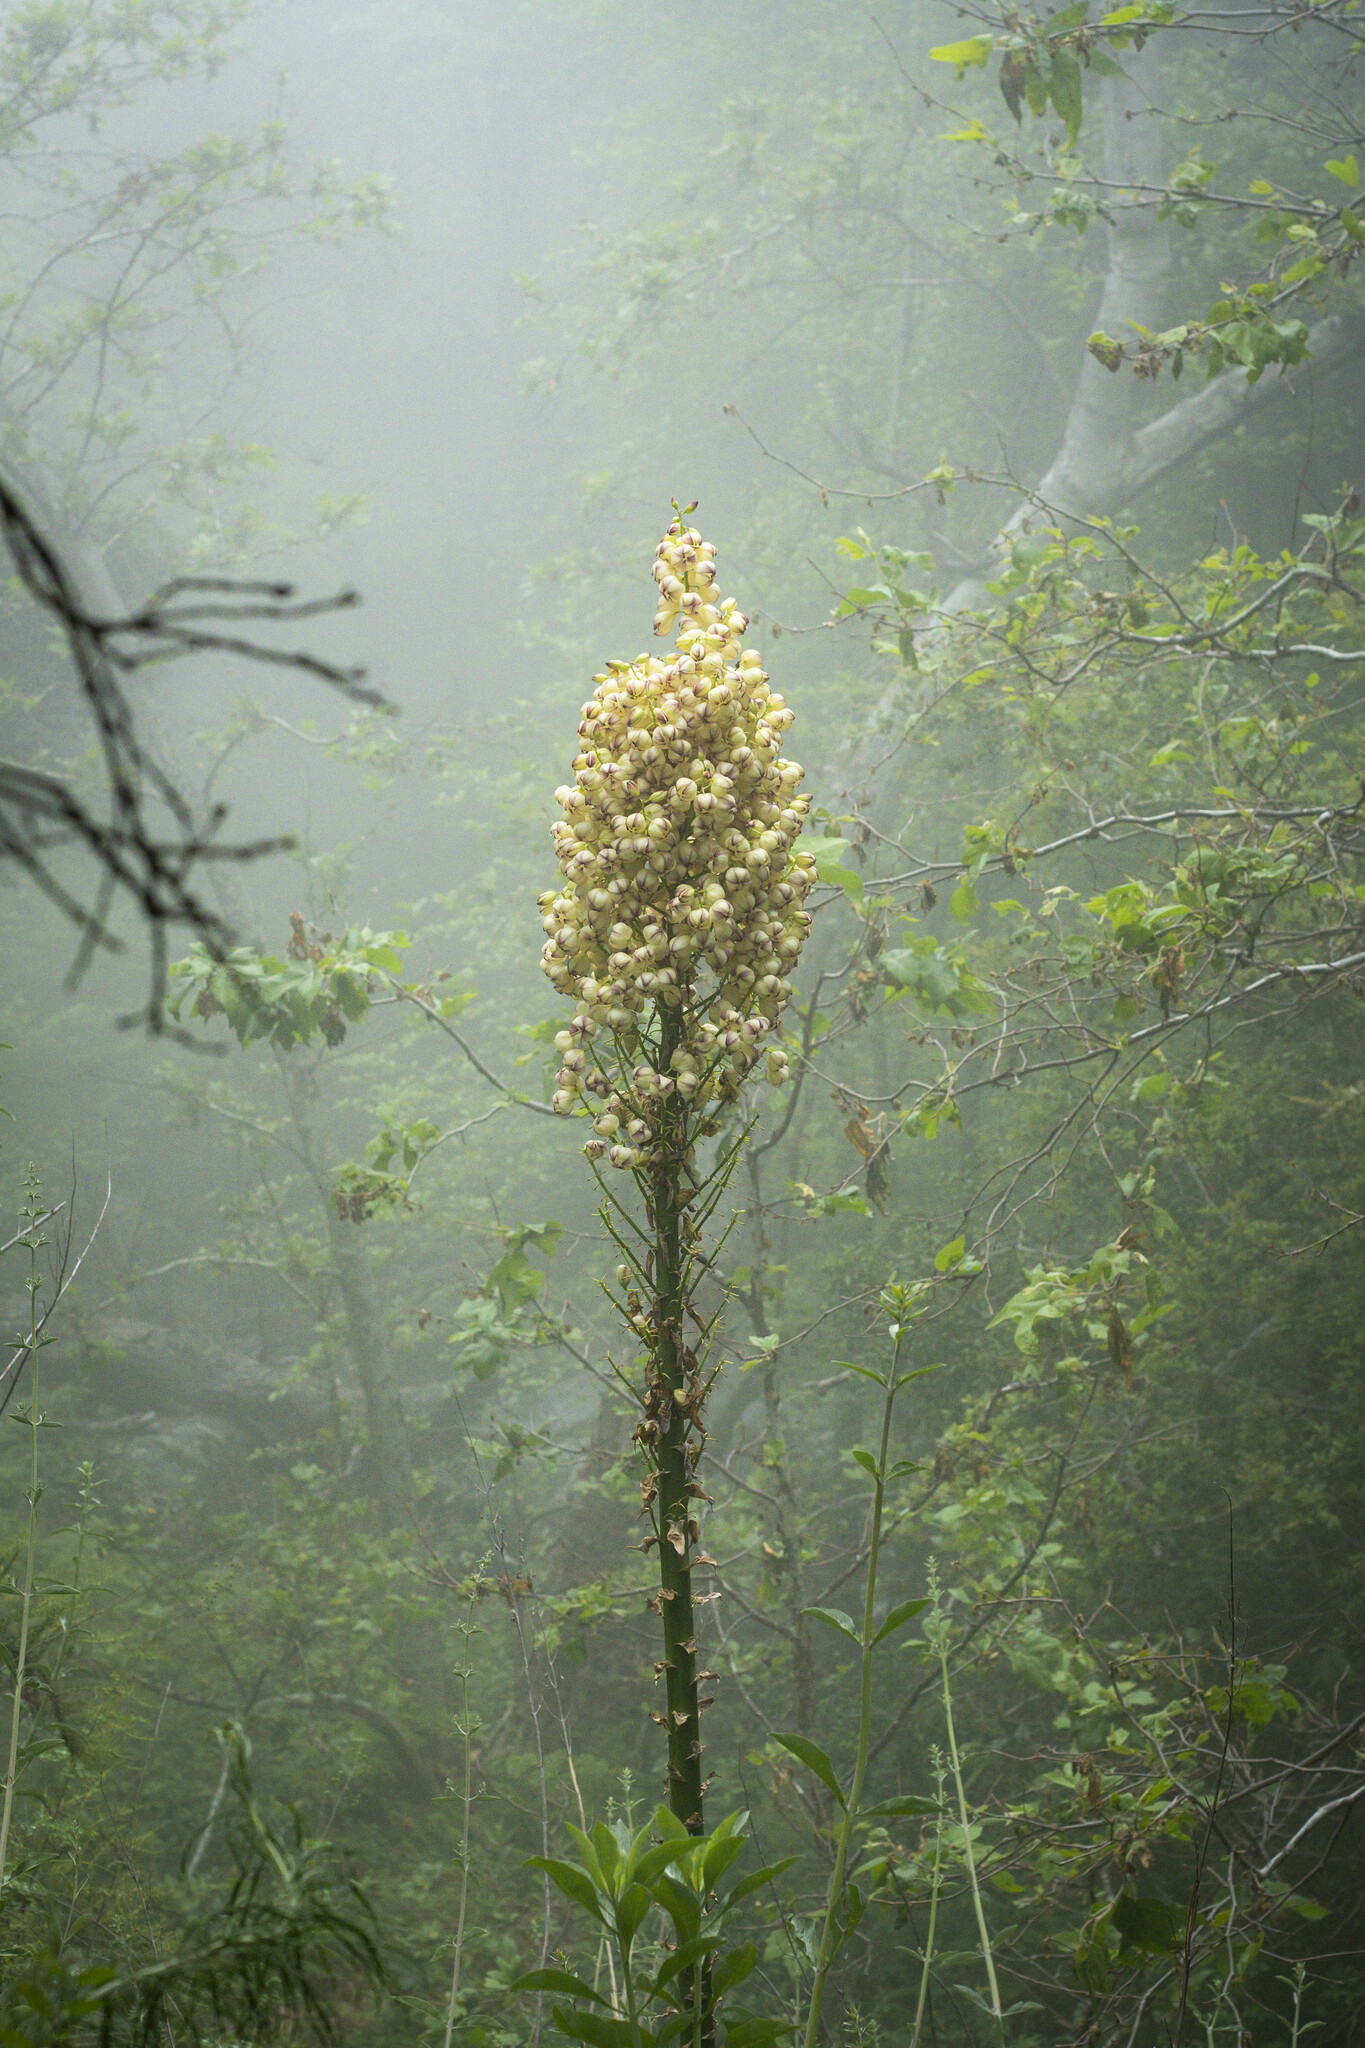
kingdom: Plantae
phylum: Tracheophyta
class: Liliopsida
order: Asparagales
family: Asparagaceae
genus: Hesperoyucca
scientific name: Hesperoyucca whipplei
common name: Our lord's-candle
